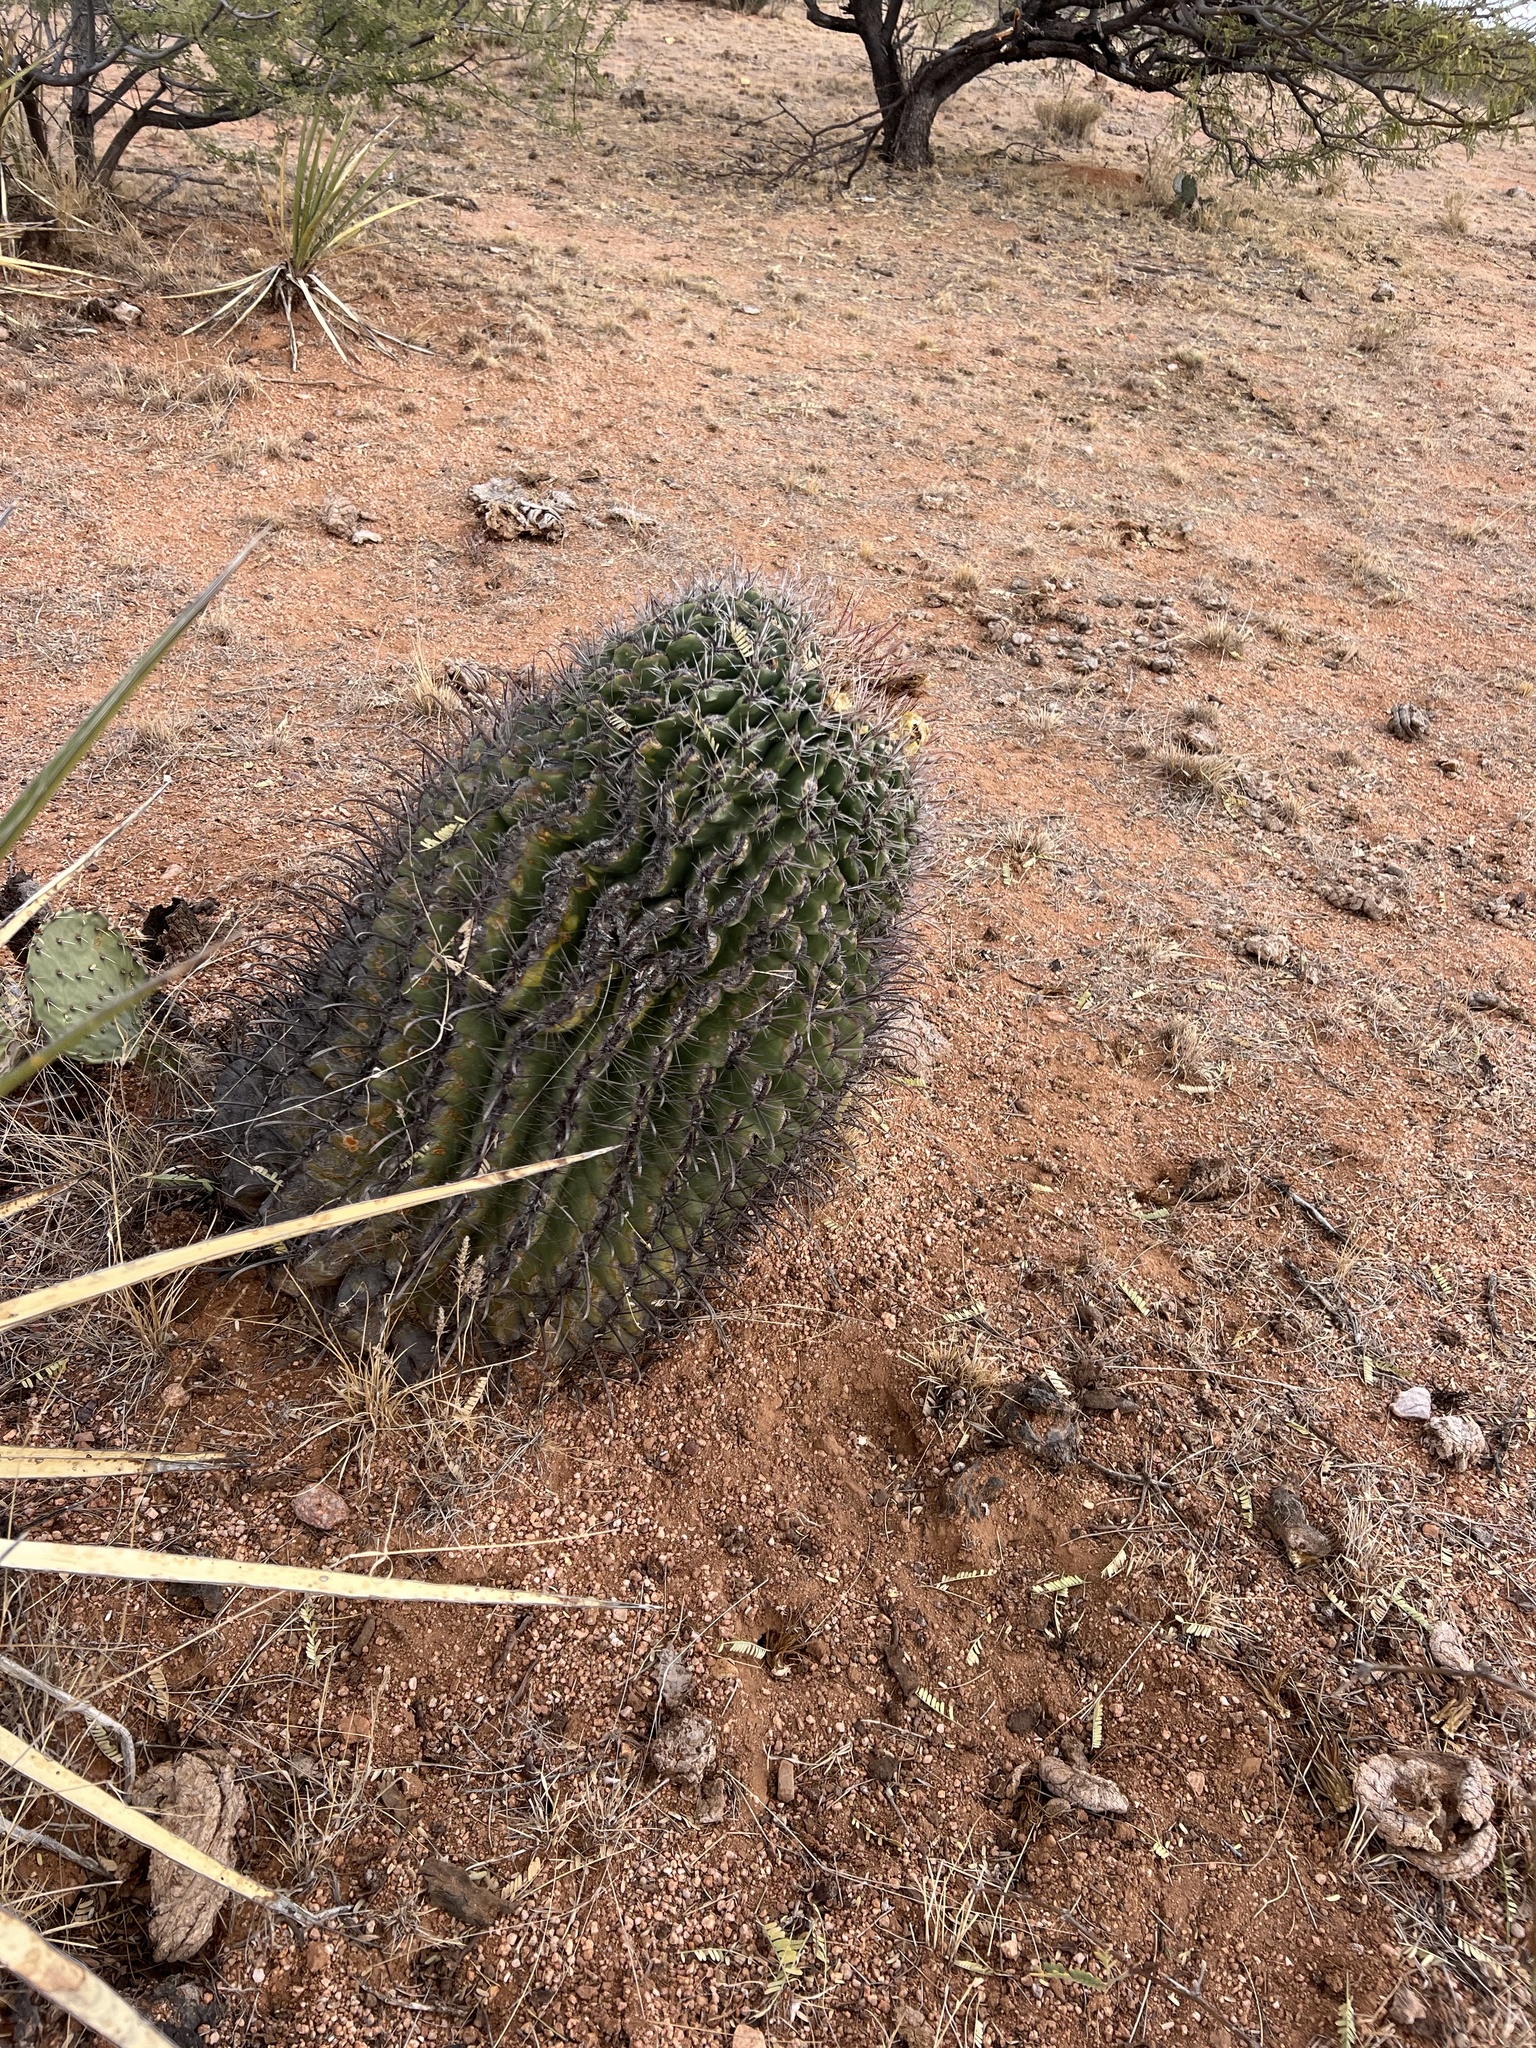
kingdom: Plantae
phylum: Tracheophyta
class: Magnoliopsida
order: Caryophyllales
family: Cactaceae
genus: Ferocactus
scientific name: Ferocactus wislizeni
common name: Candy barrel cactus
